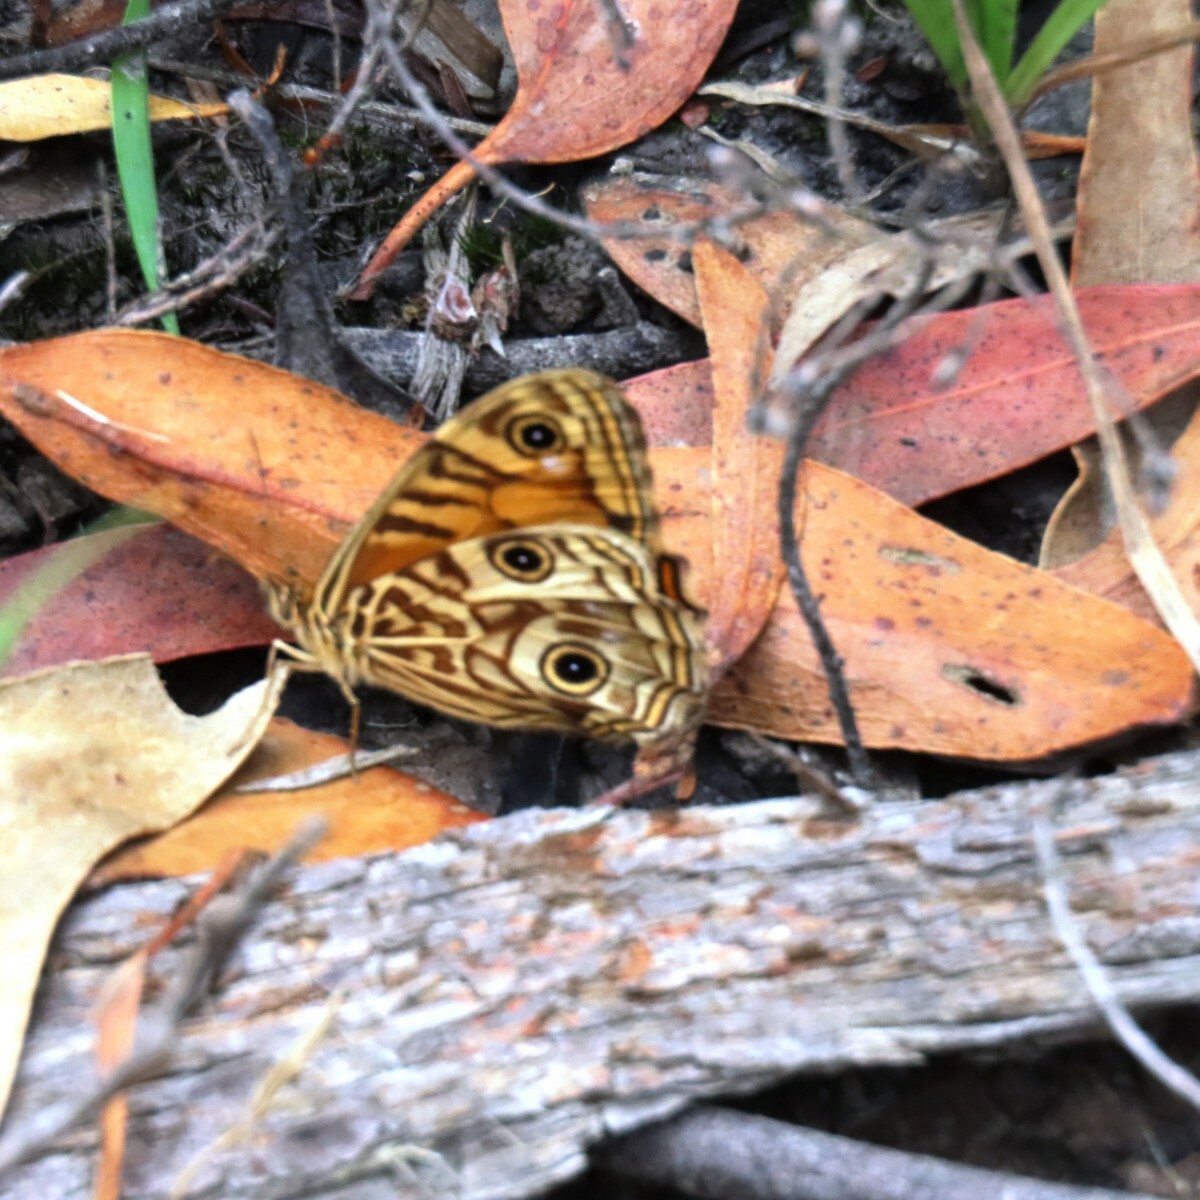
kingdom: Animalia
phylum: Arthropoda
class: Insecta
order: Lepidoptera
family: Nymphalidae
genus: Geitoneura
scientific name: Geitoneura acantha
